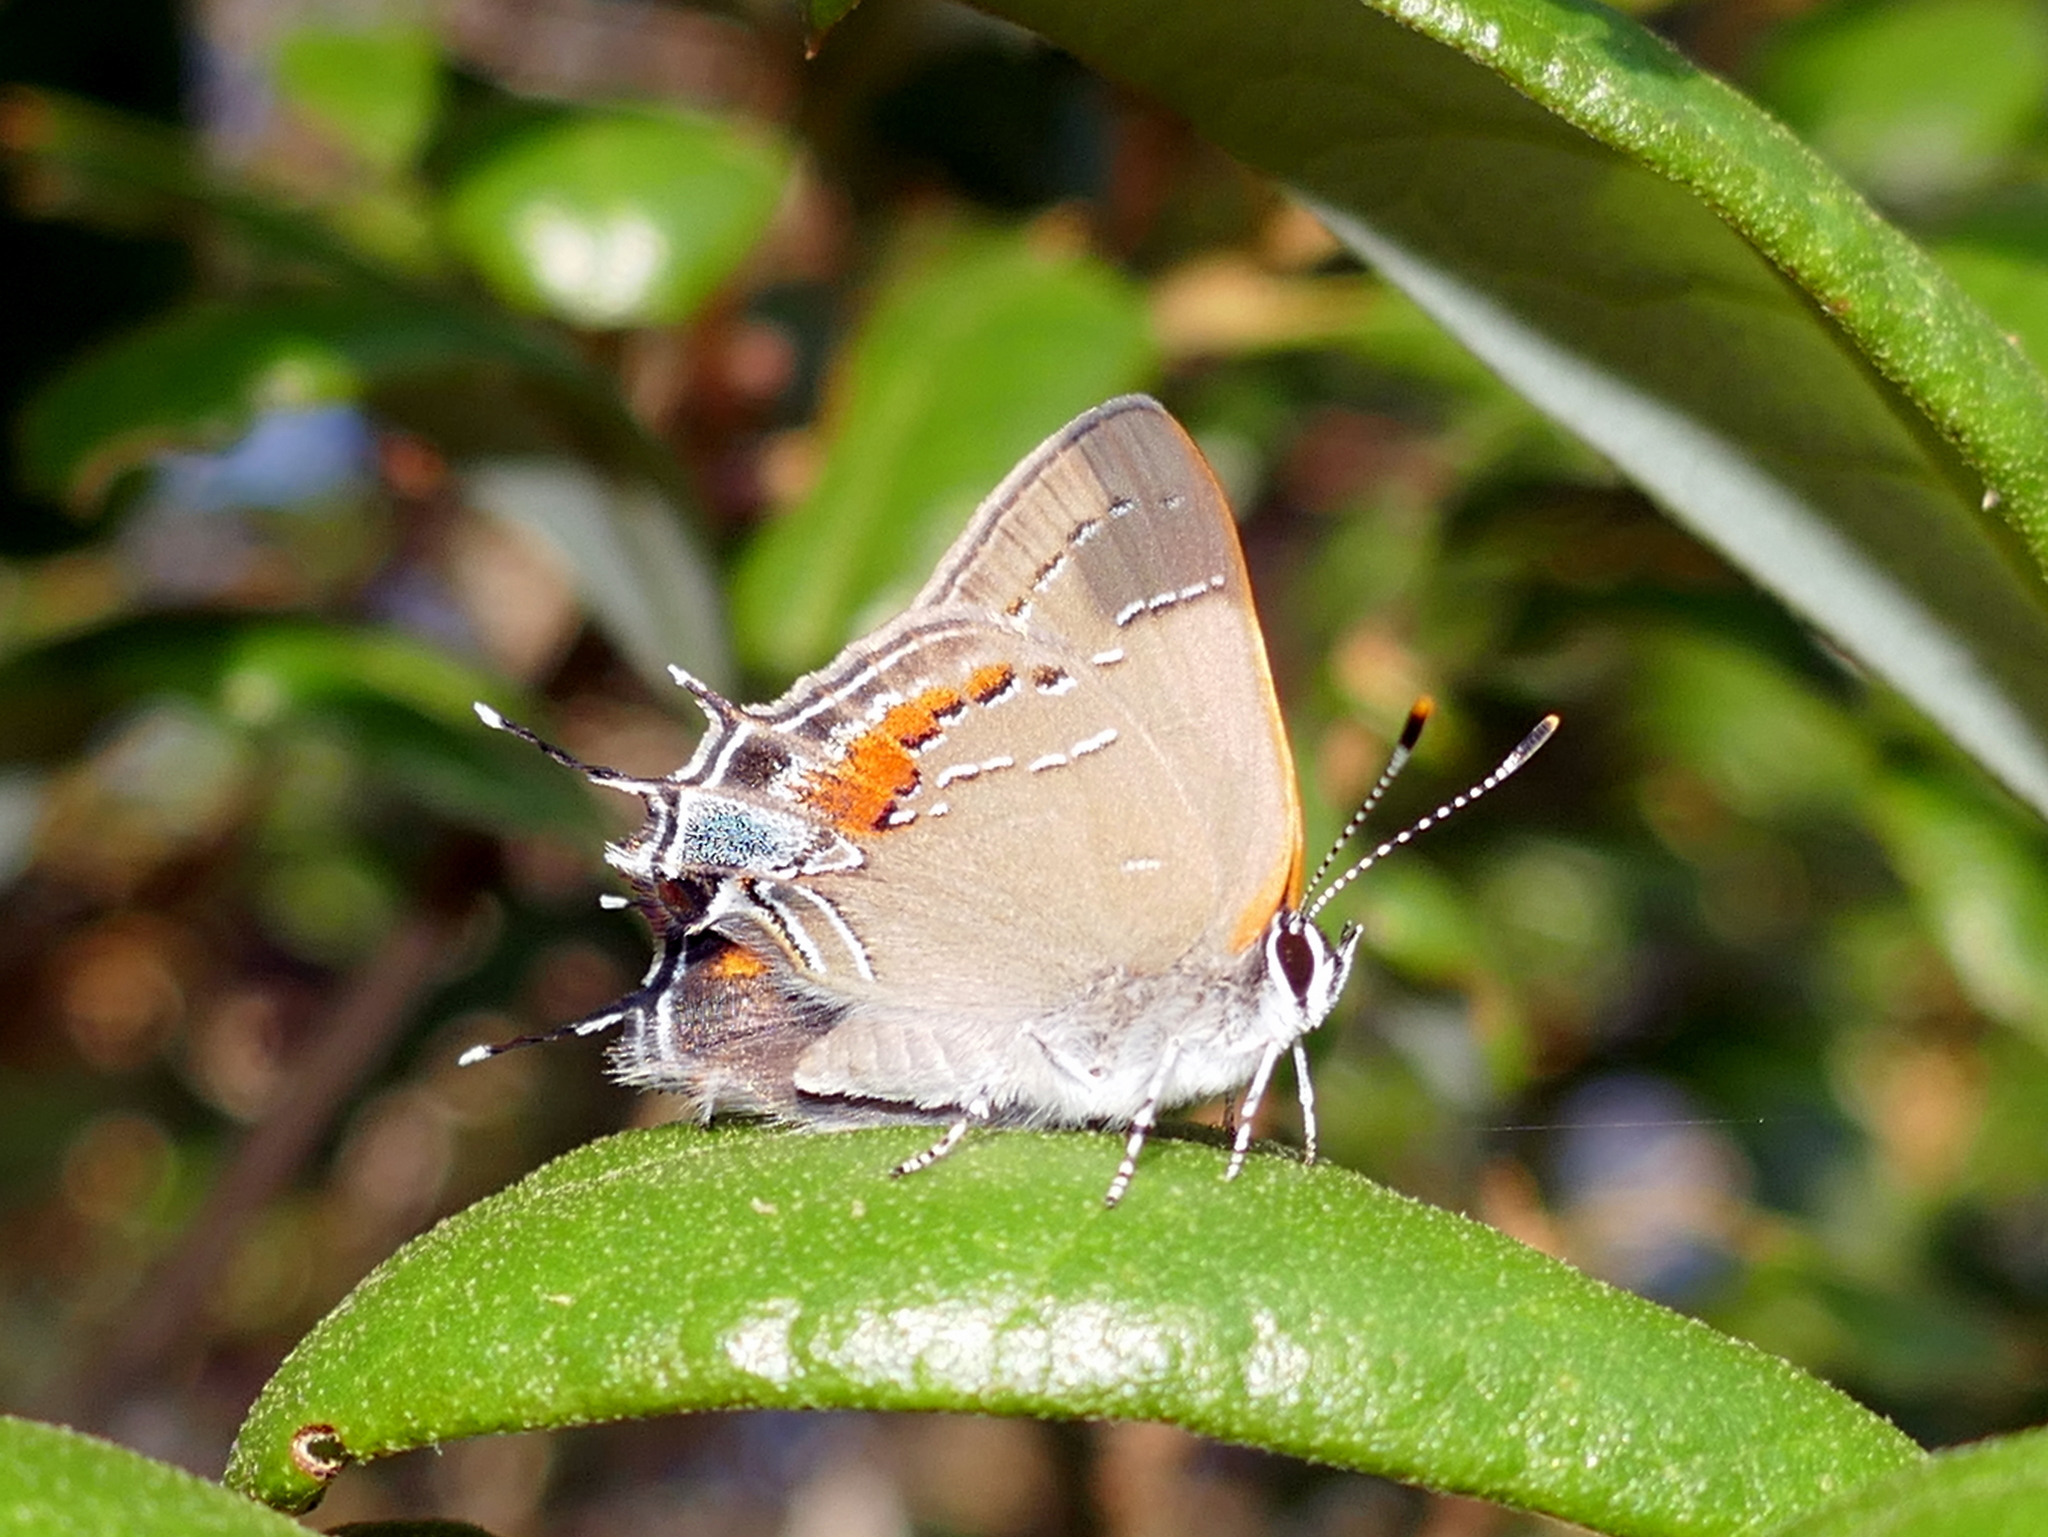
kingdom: Animalia
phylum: Arthropoda
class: Insecta
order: Lepidoptera
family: Lycaenidae
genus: Fixsenia
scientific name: Fixsenia favonius
